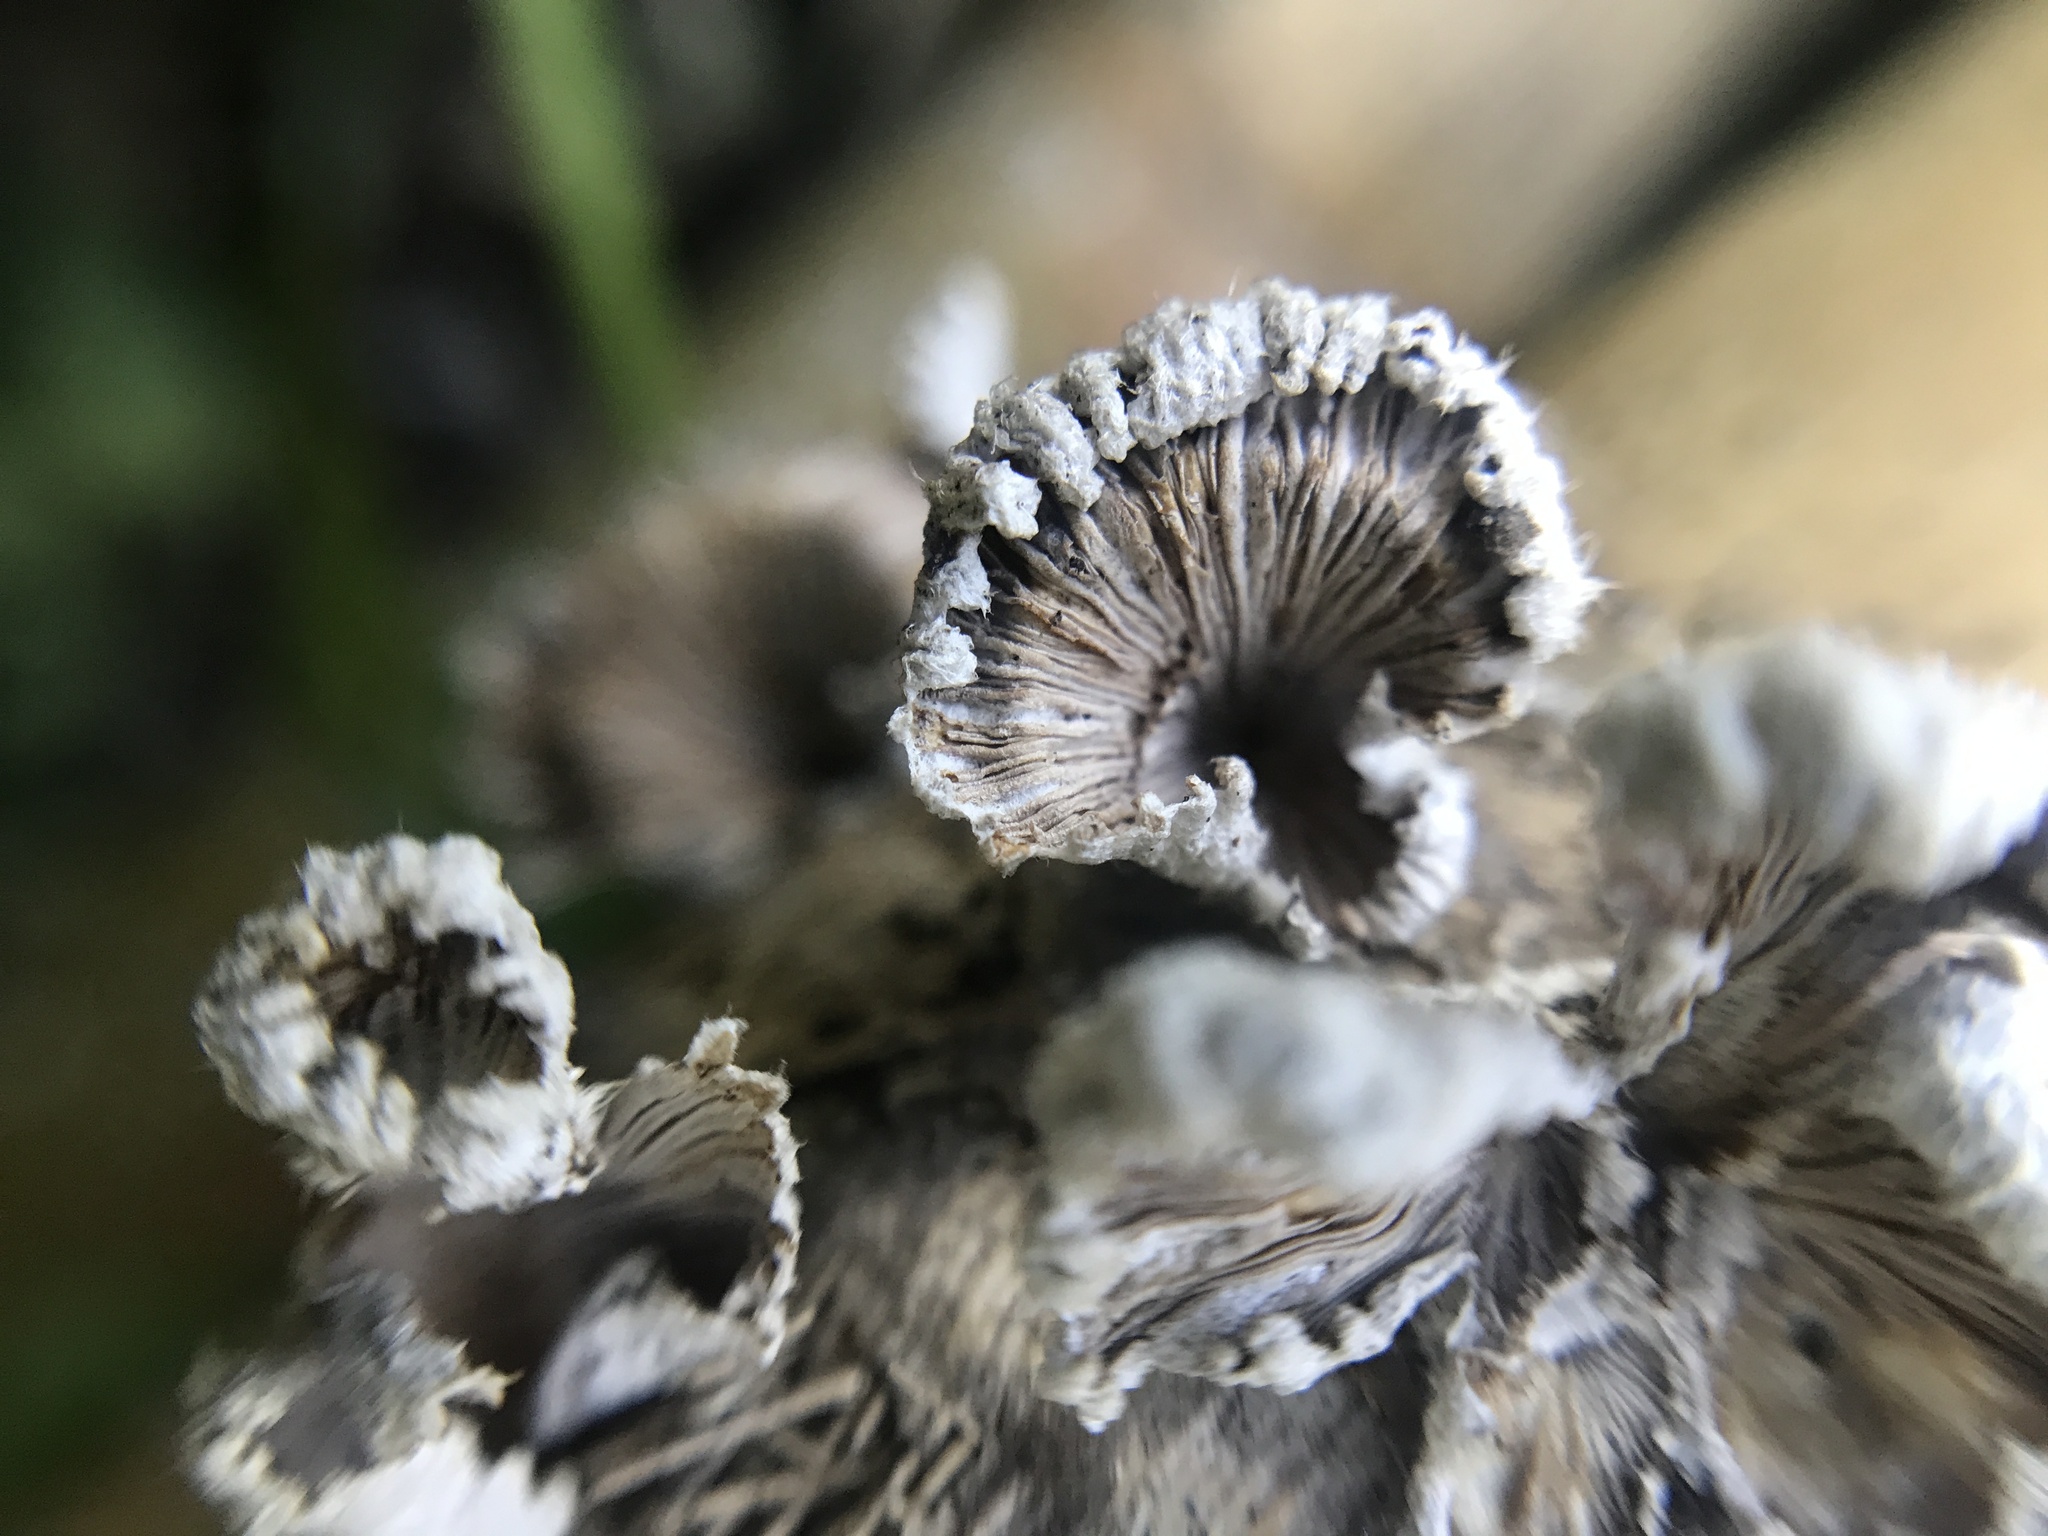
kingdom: Fungi
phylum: Basidiomycota
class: Agaricomycetes
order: Agaricales
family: Schizophyllaceae
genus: Schizophyllum
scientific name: Schizophyllum commune
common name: Common porecrust
